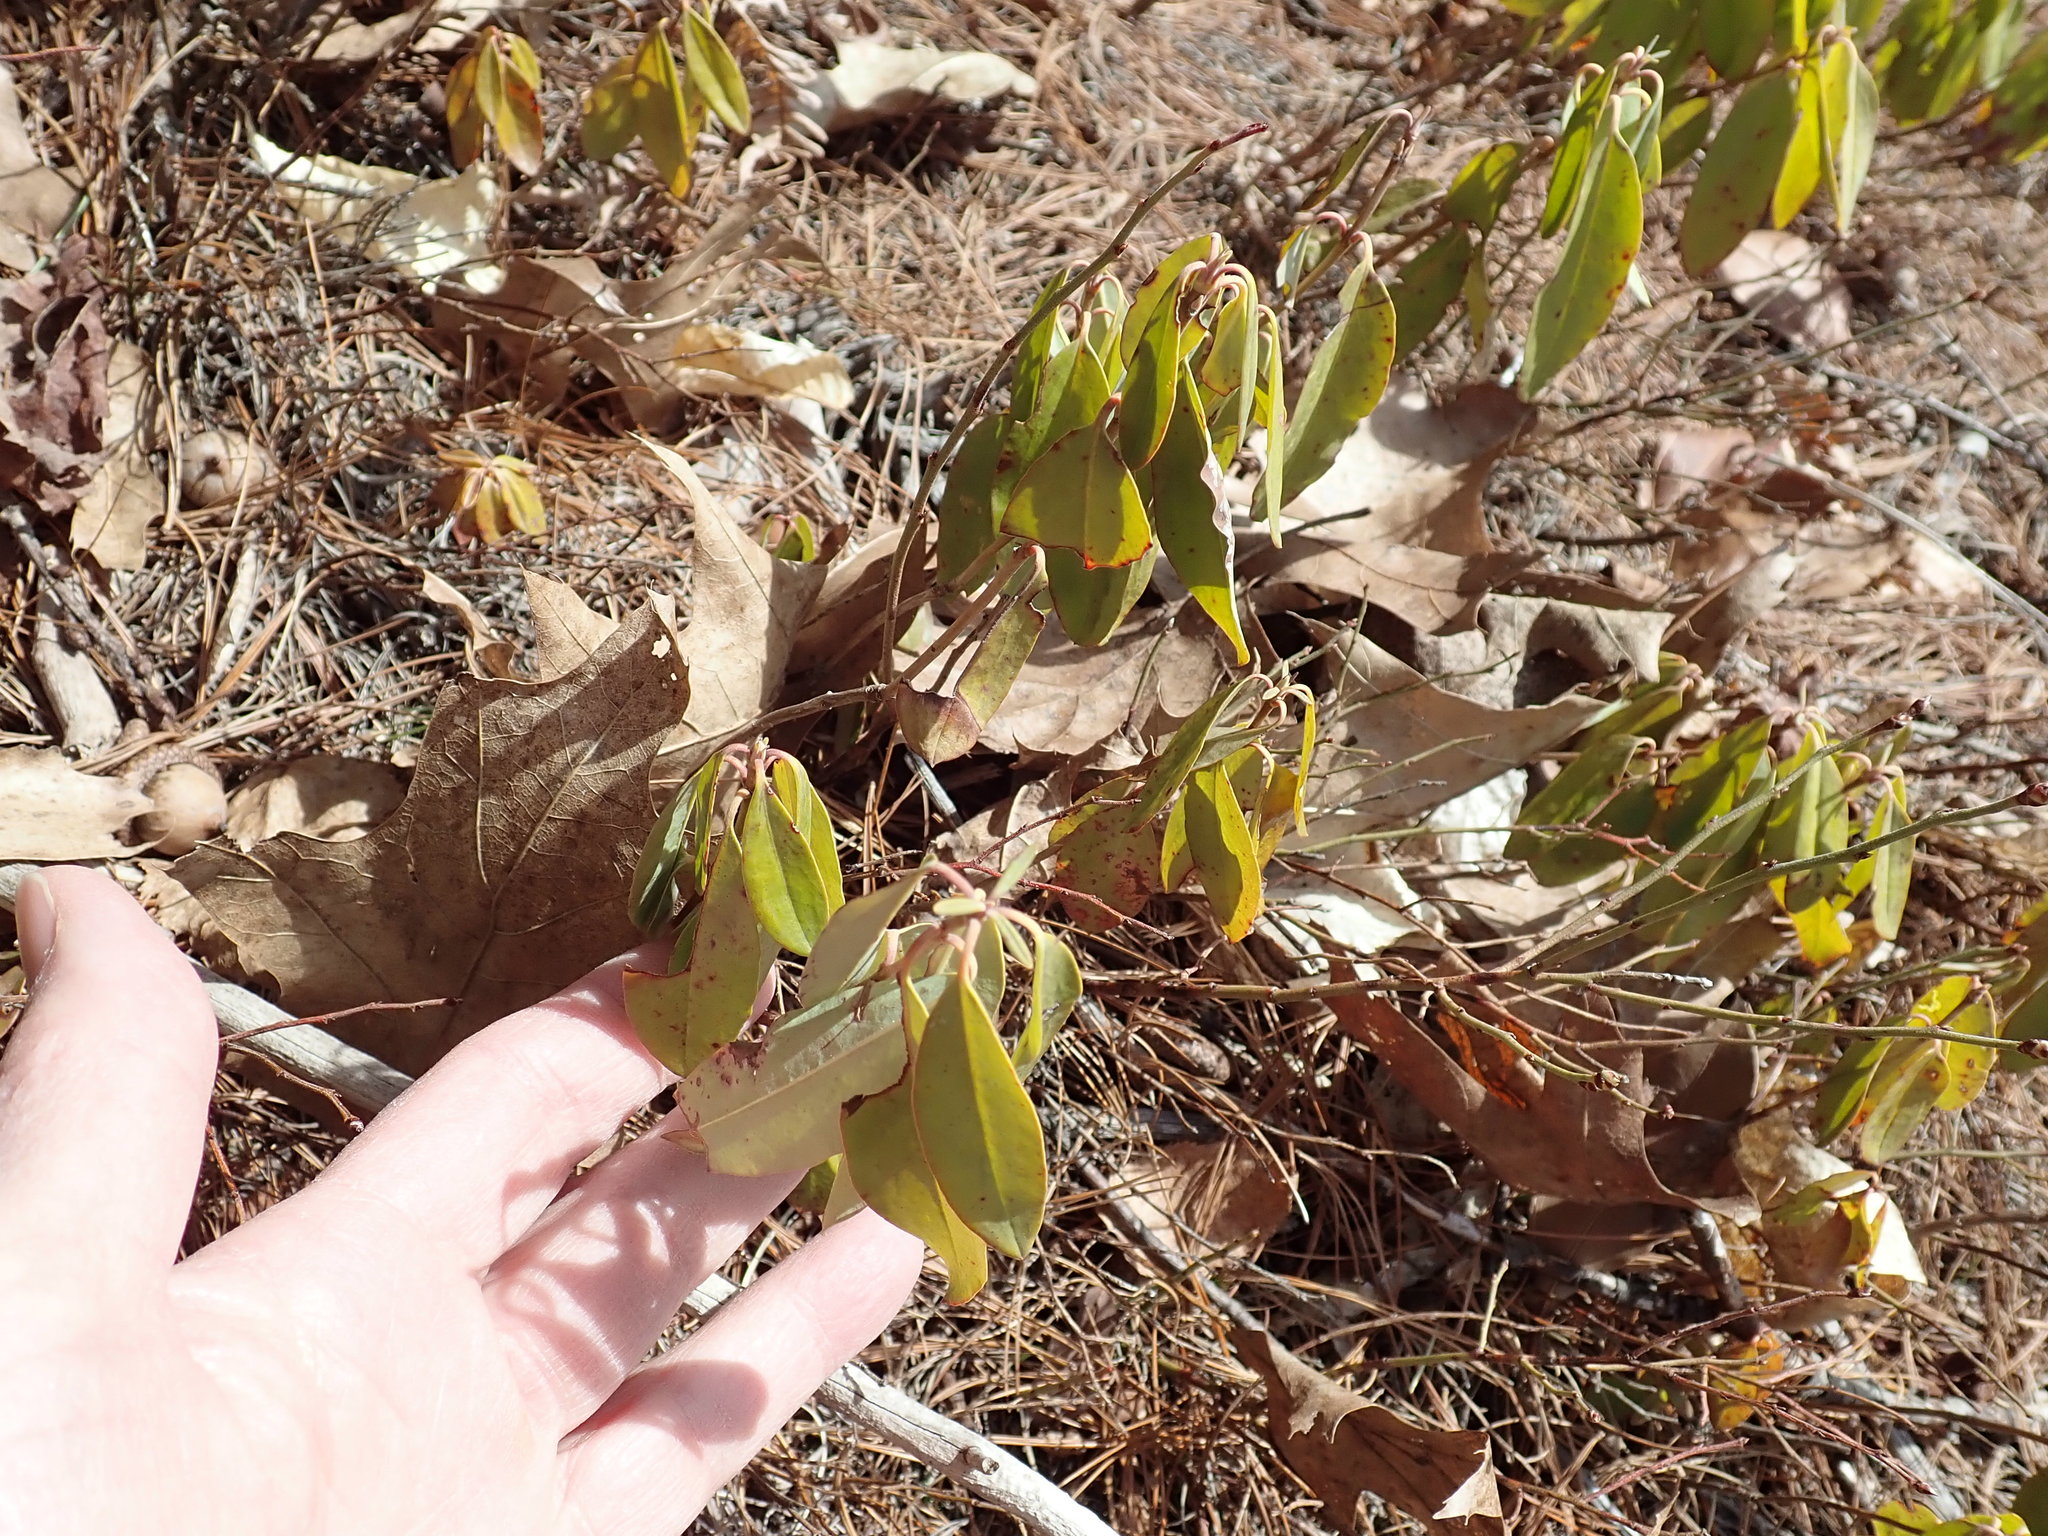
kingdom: Plantae
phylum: Tracheophyta
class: Magnoliopsida
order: Ericales
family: Ericaceae
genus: Kalmia
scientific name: Kalmia angustifolia
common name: Sheep-laurel
